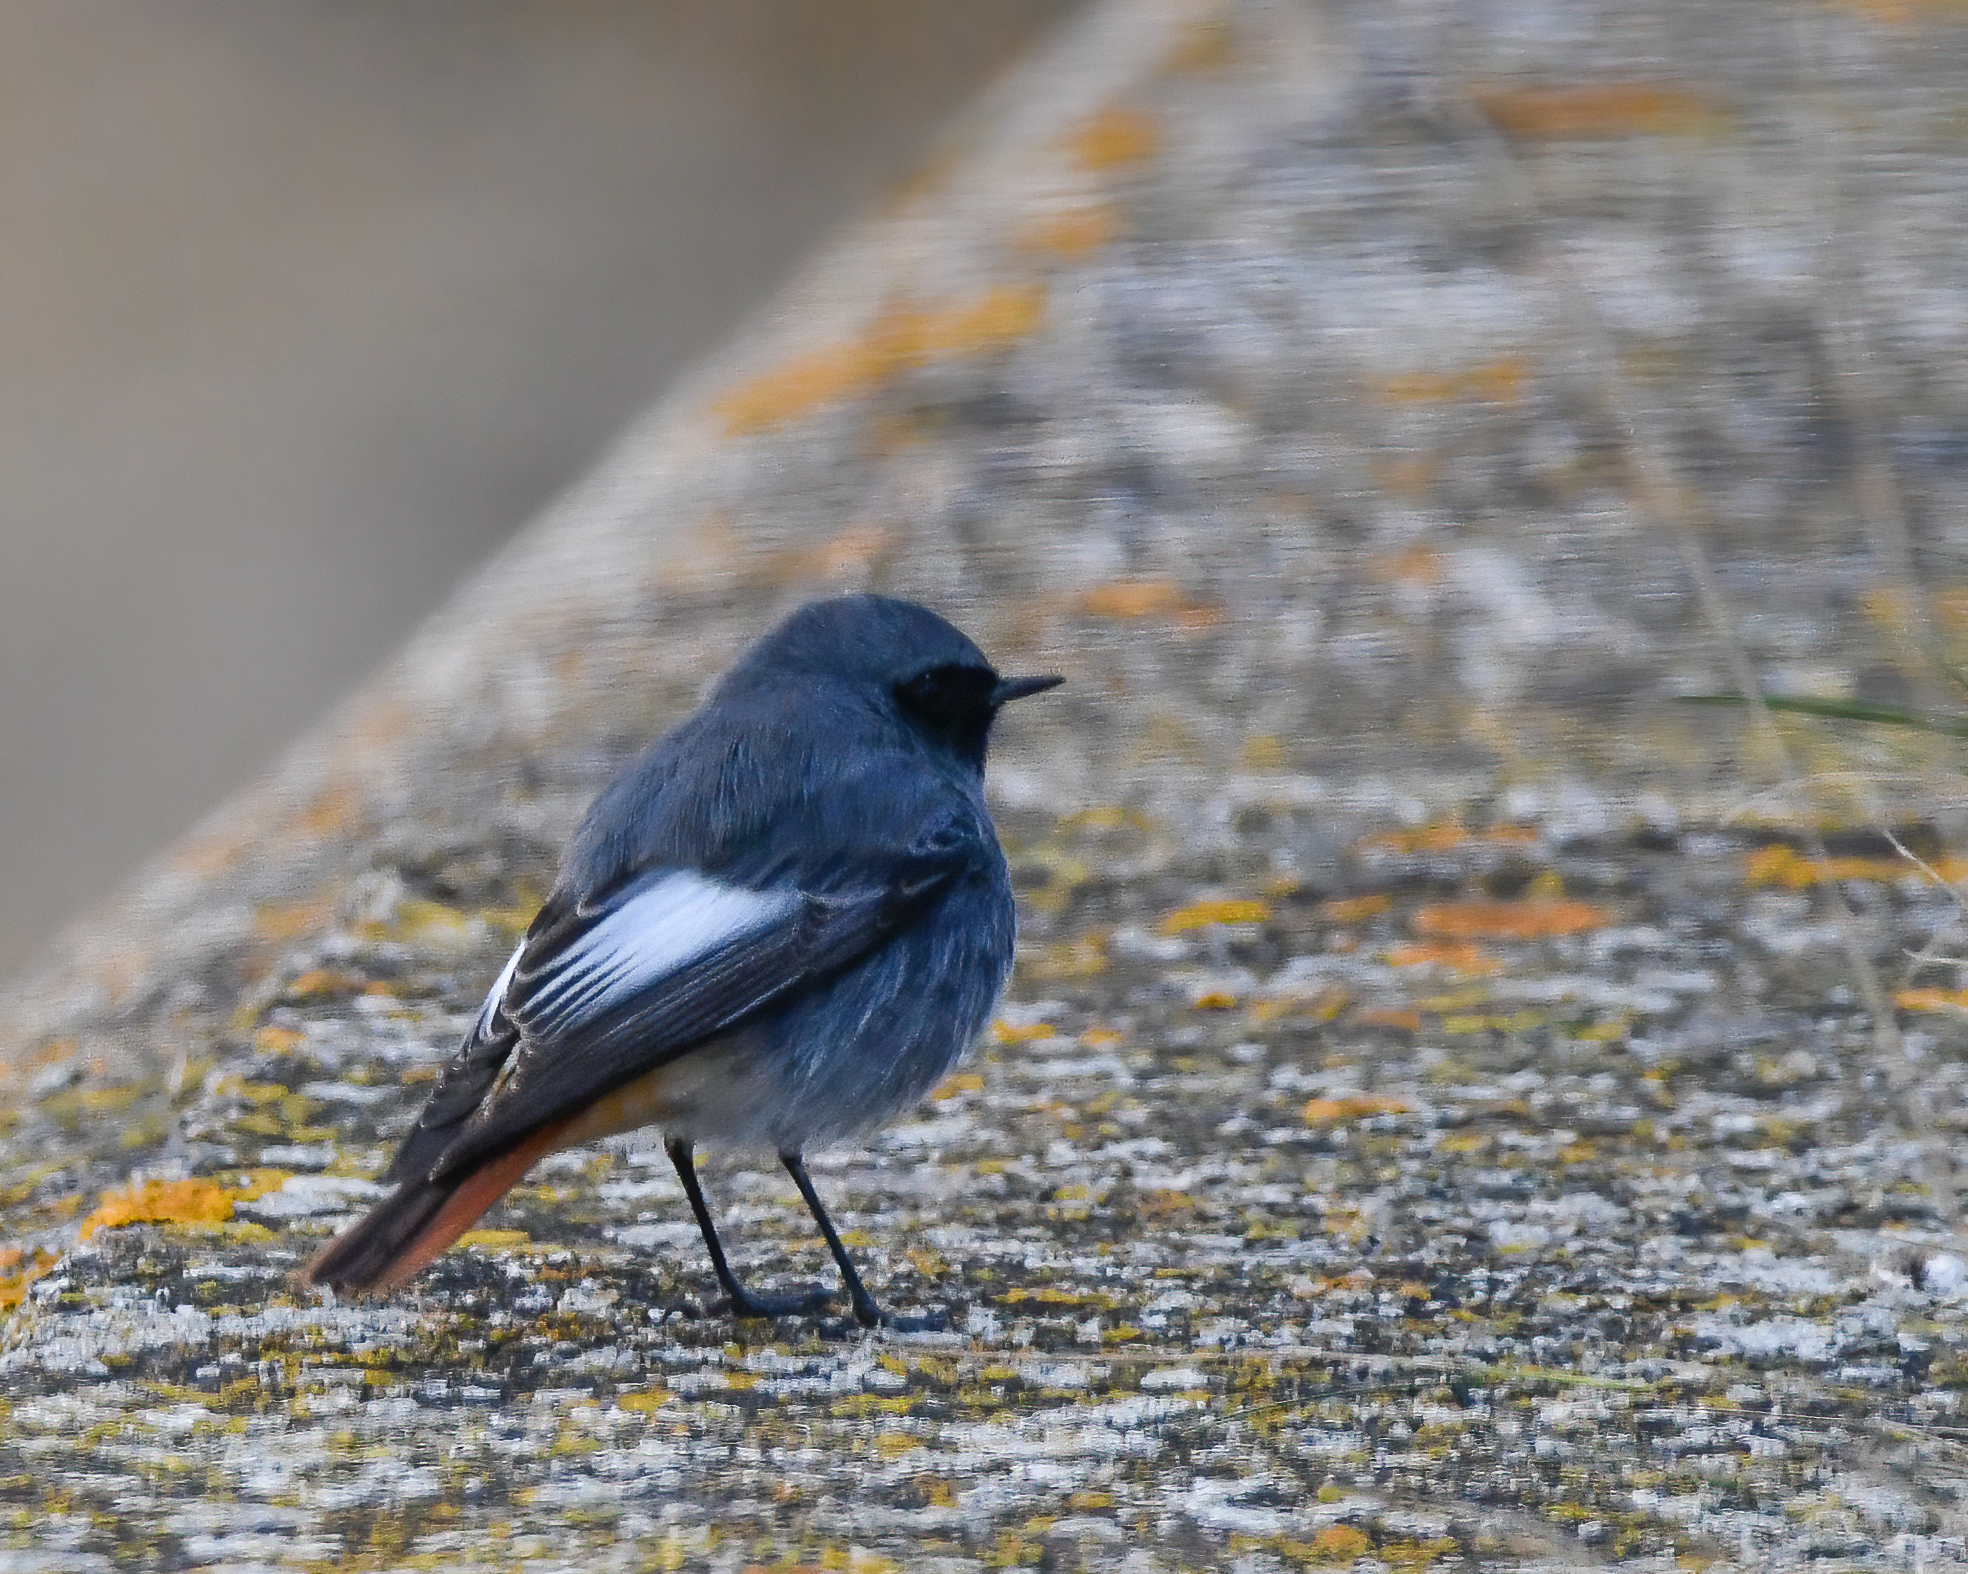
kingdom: Animalia
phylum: Chordata
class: Aves
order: Passeriformes
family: Muscicapidae
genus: Phoenicurus
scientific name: Phoenicurus ochruros
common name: Black redstart
